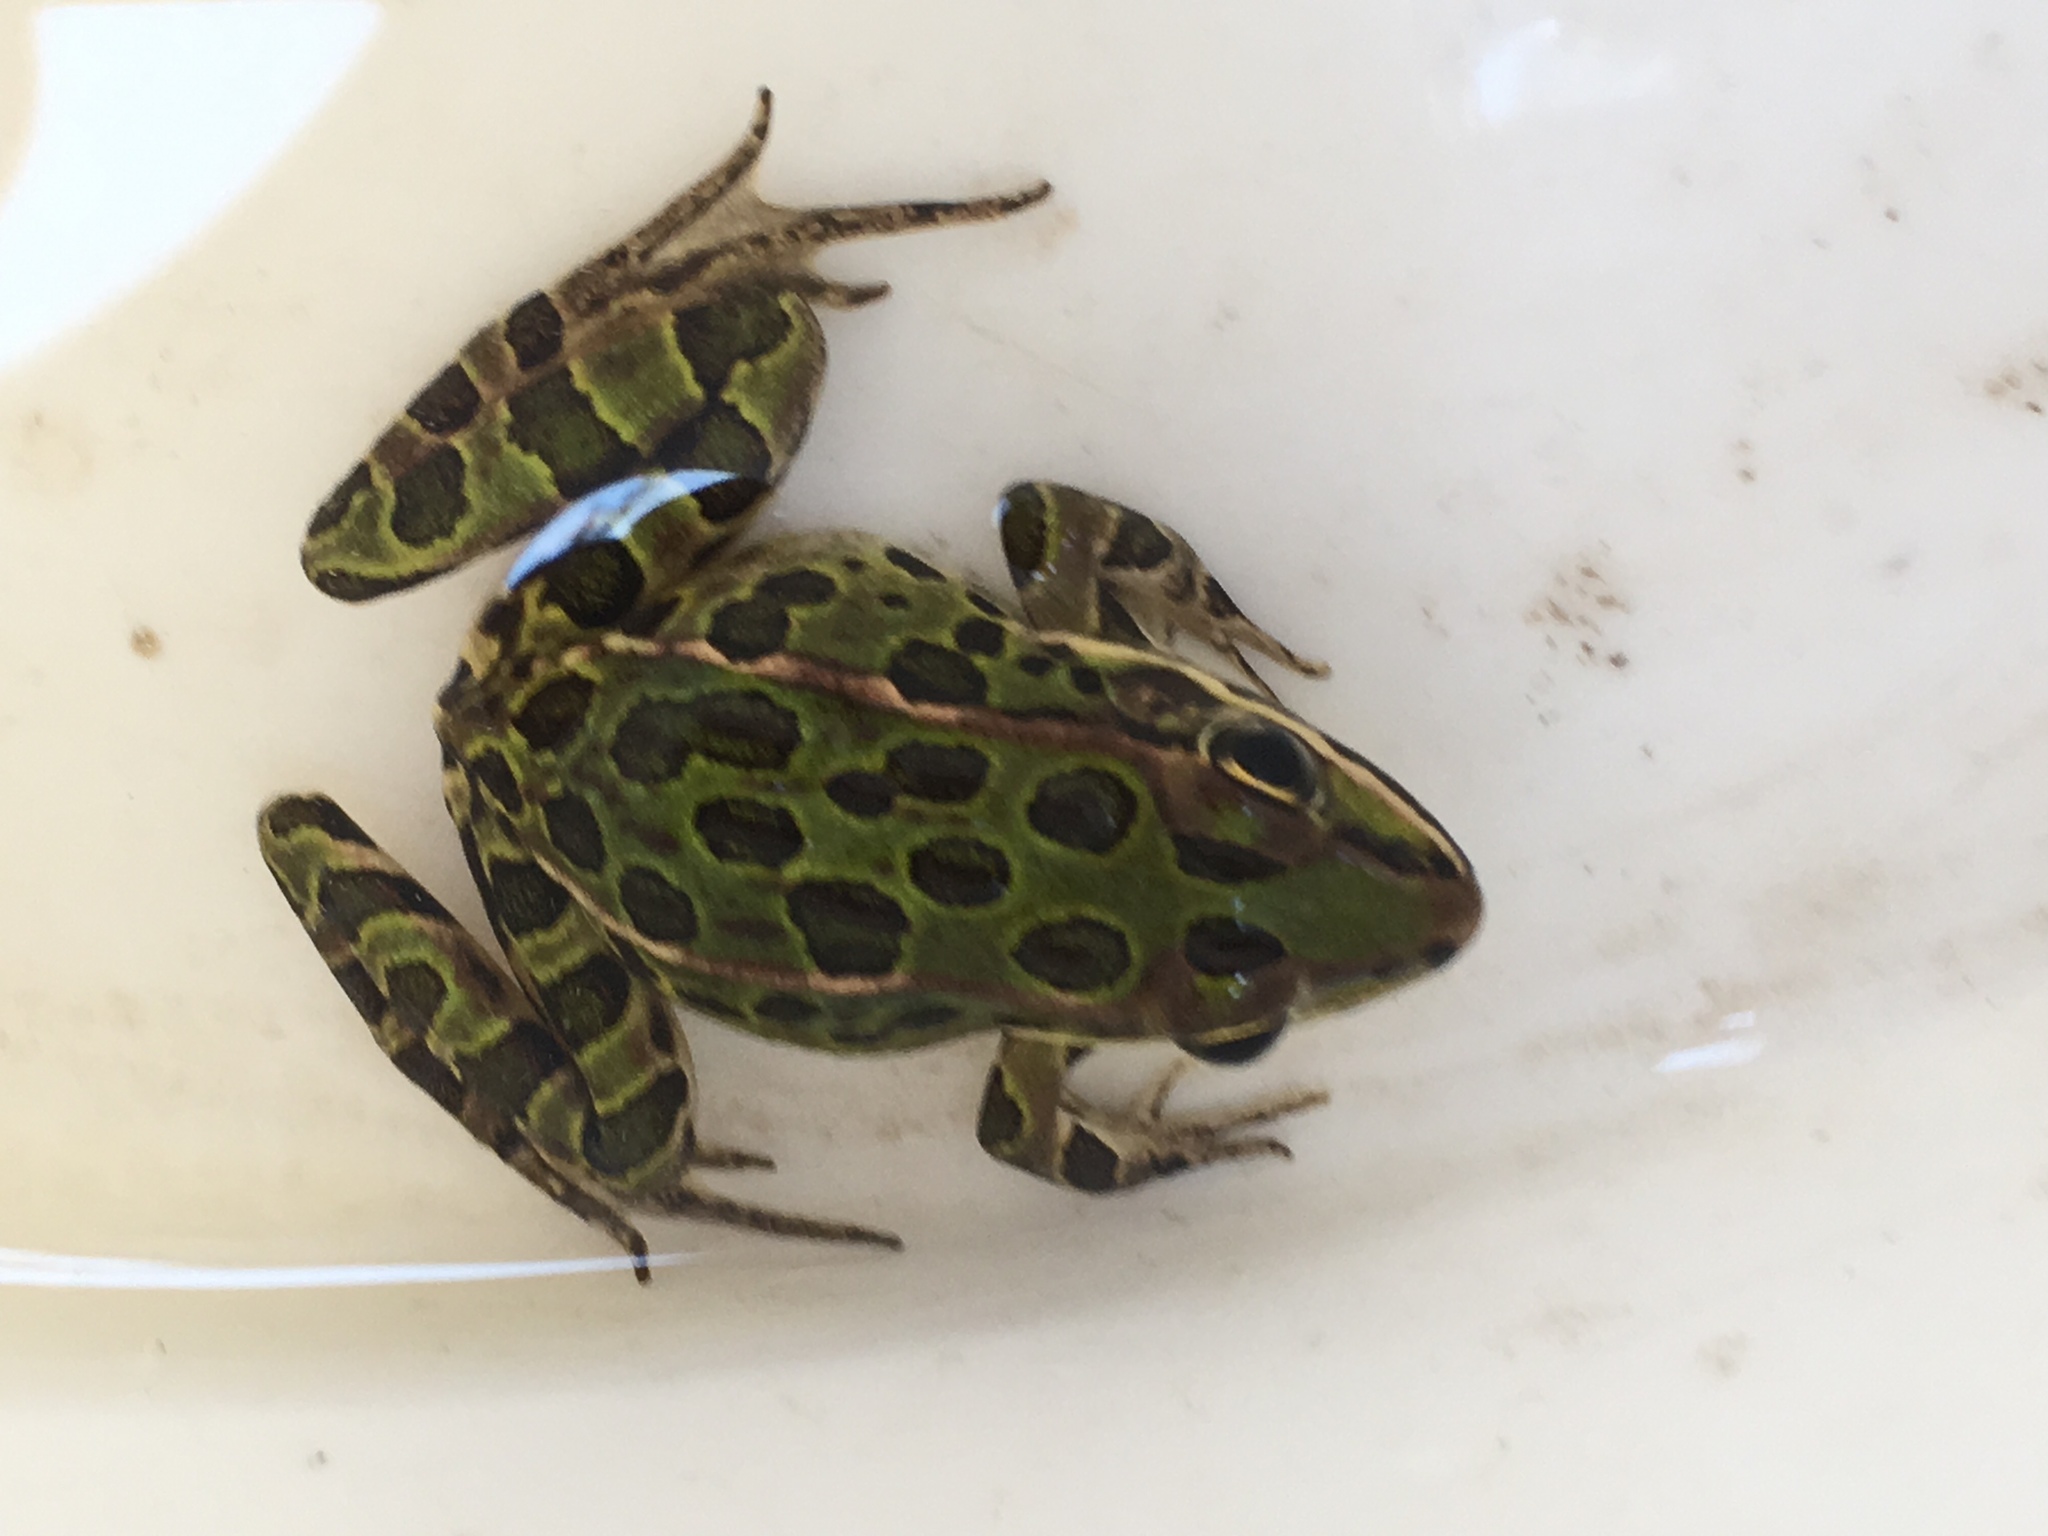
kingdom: Animalia
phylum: Chordata
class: Amphibia
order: Anura
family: Ranidae
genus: Lithobates
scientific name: Lithobates pipiens
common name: Northern leopard frog
